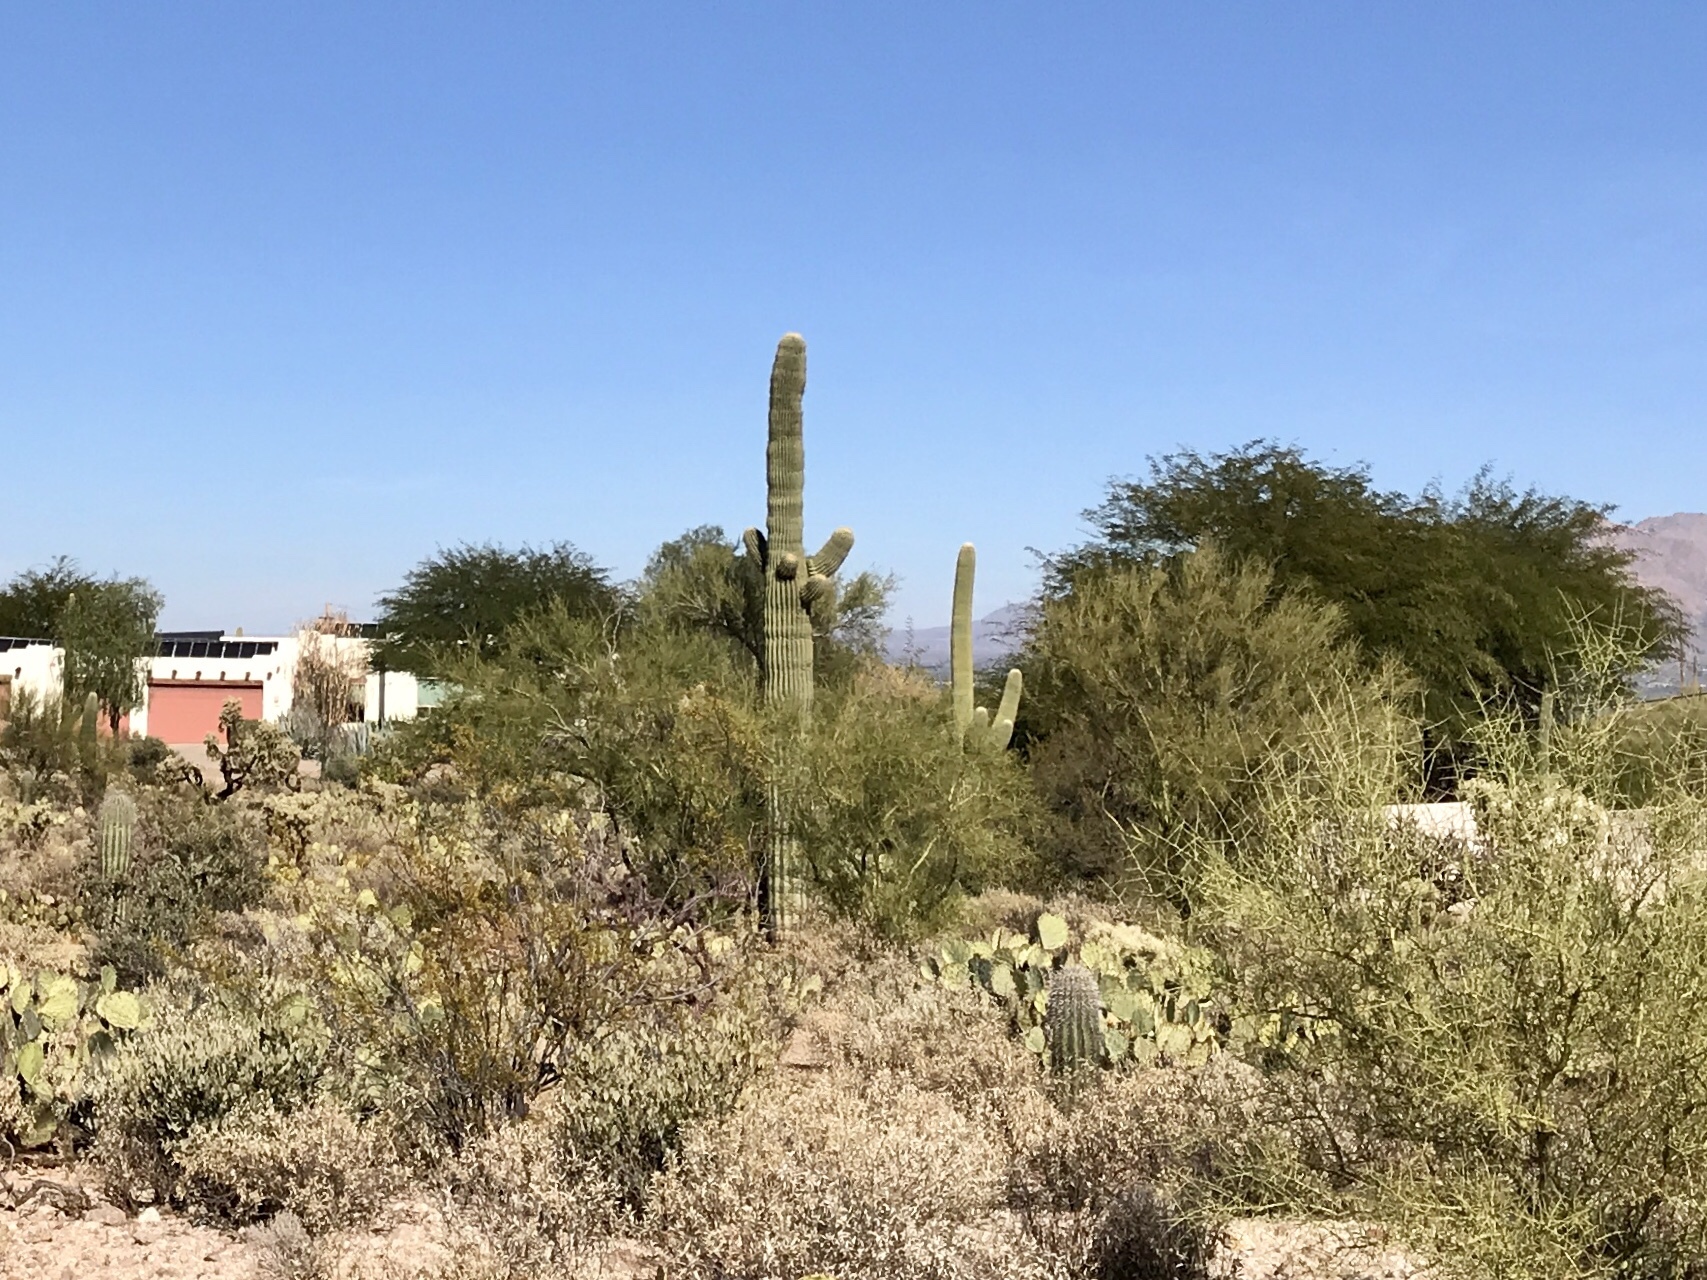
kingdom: Plantae
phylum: Tracheophyta
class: Magnoliopsida
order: Caryophyllales
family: Cactaceae
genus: Carnegiea
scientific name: Carnegiea gigantea
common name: Saguaro
